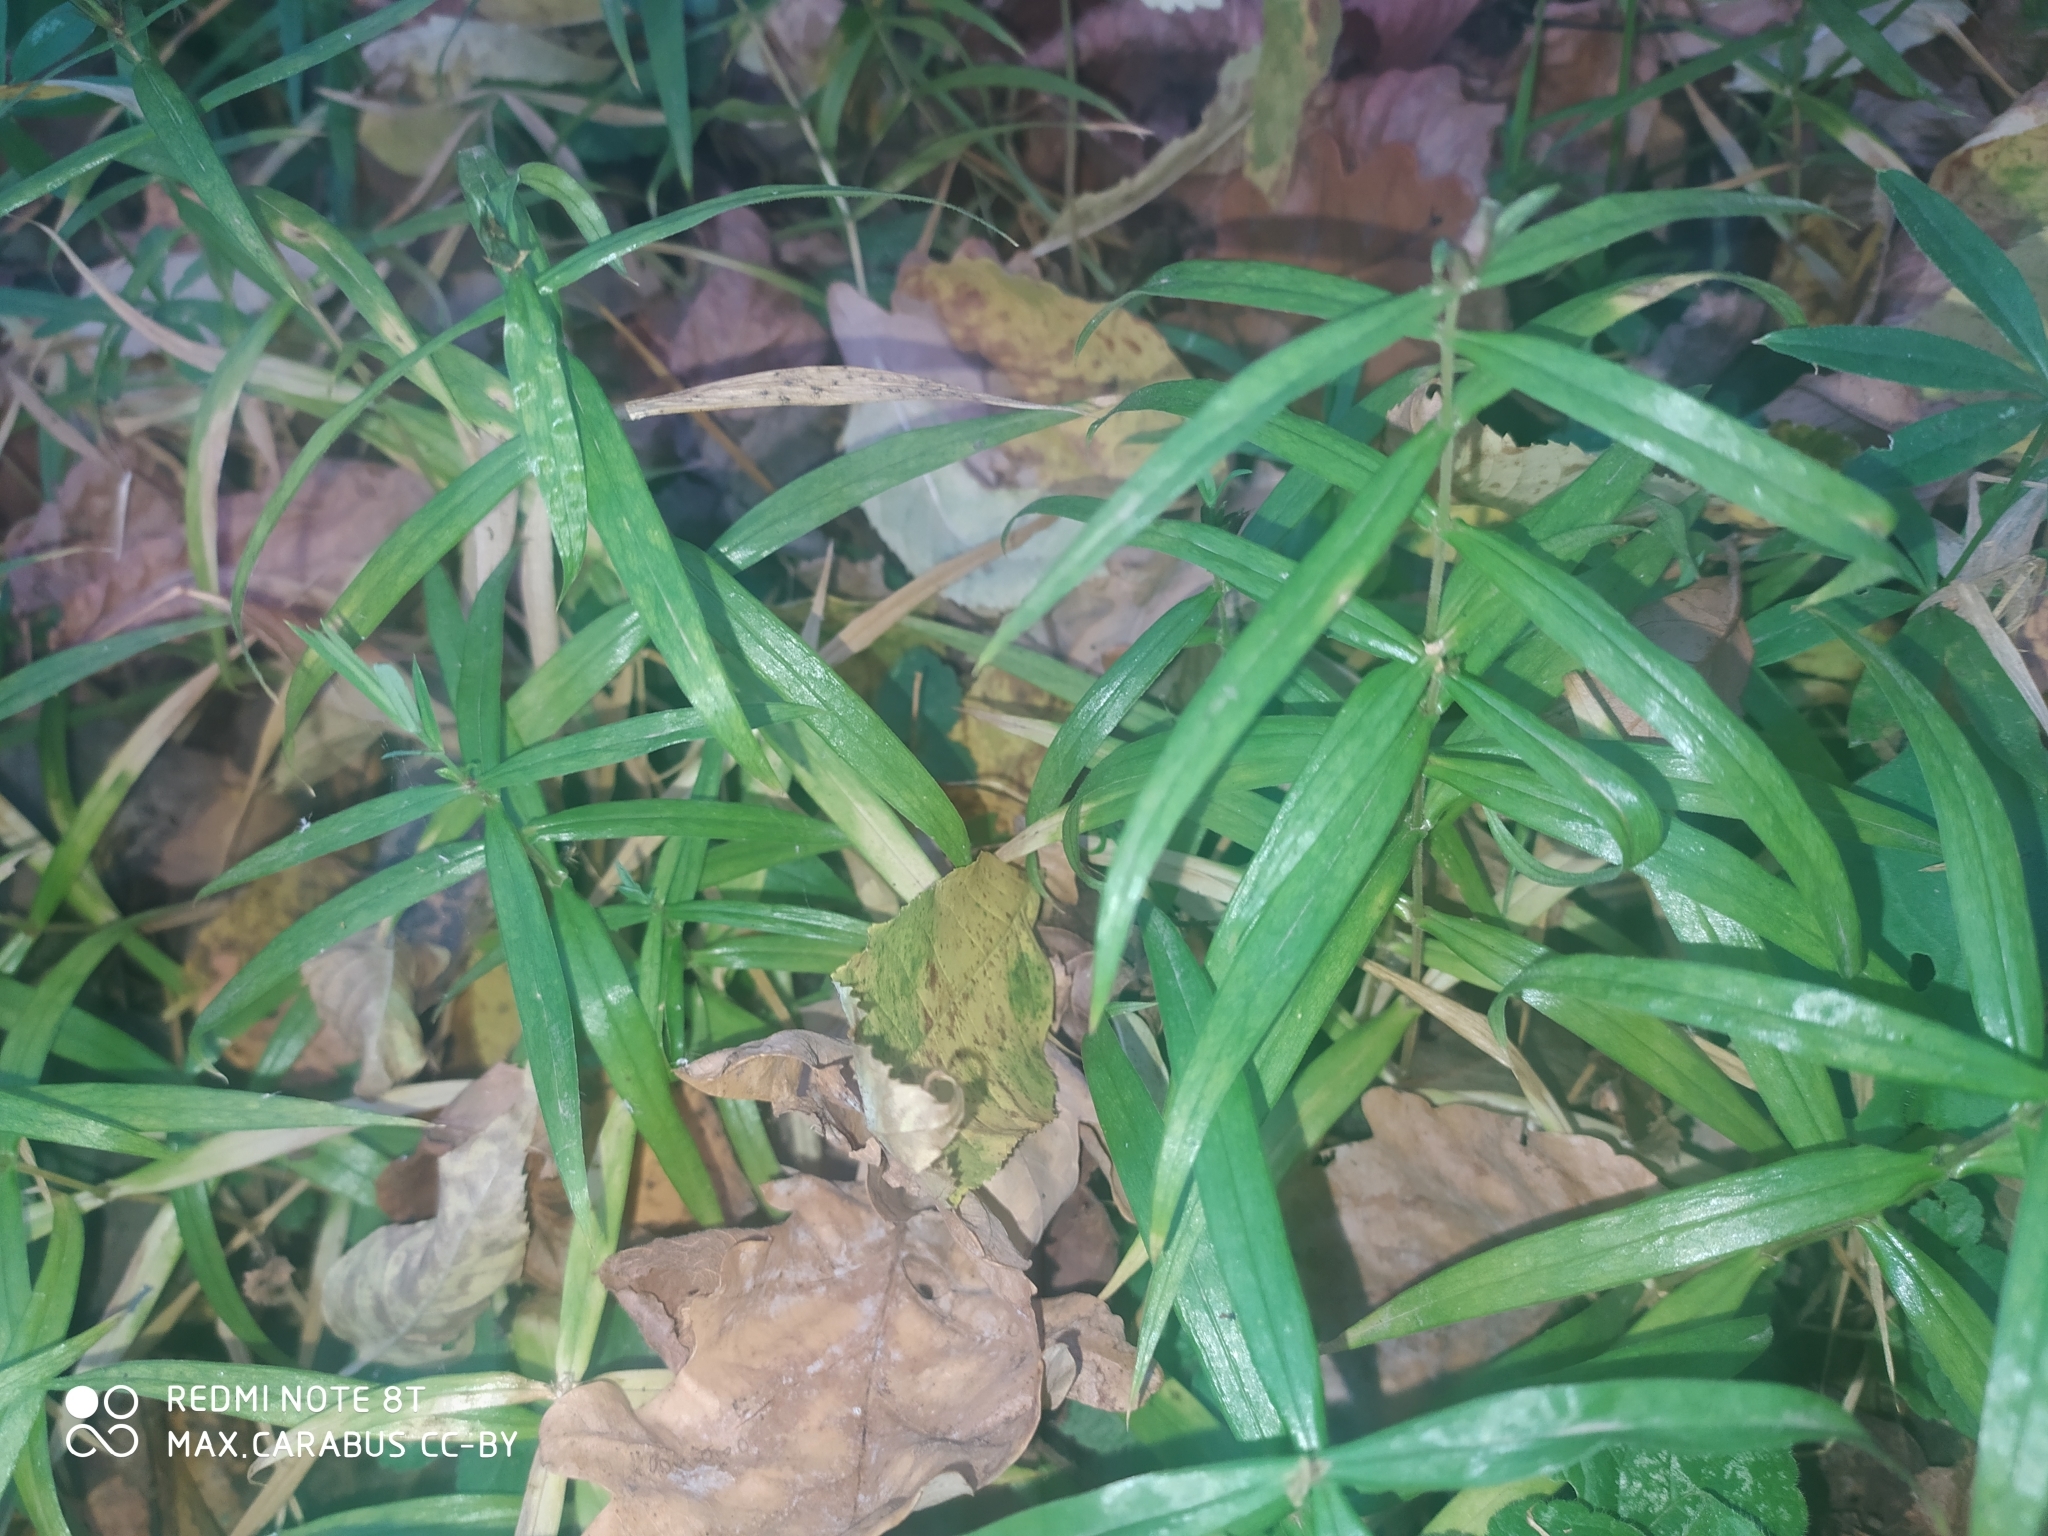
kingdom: Plantae
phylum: Tracheophyta
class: Magnoliopsida
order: Caryophyllales
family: Caryophyllaceae
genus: Rabelera
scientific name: Rabelera holostea
